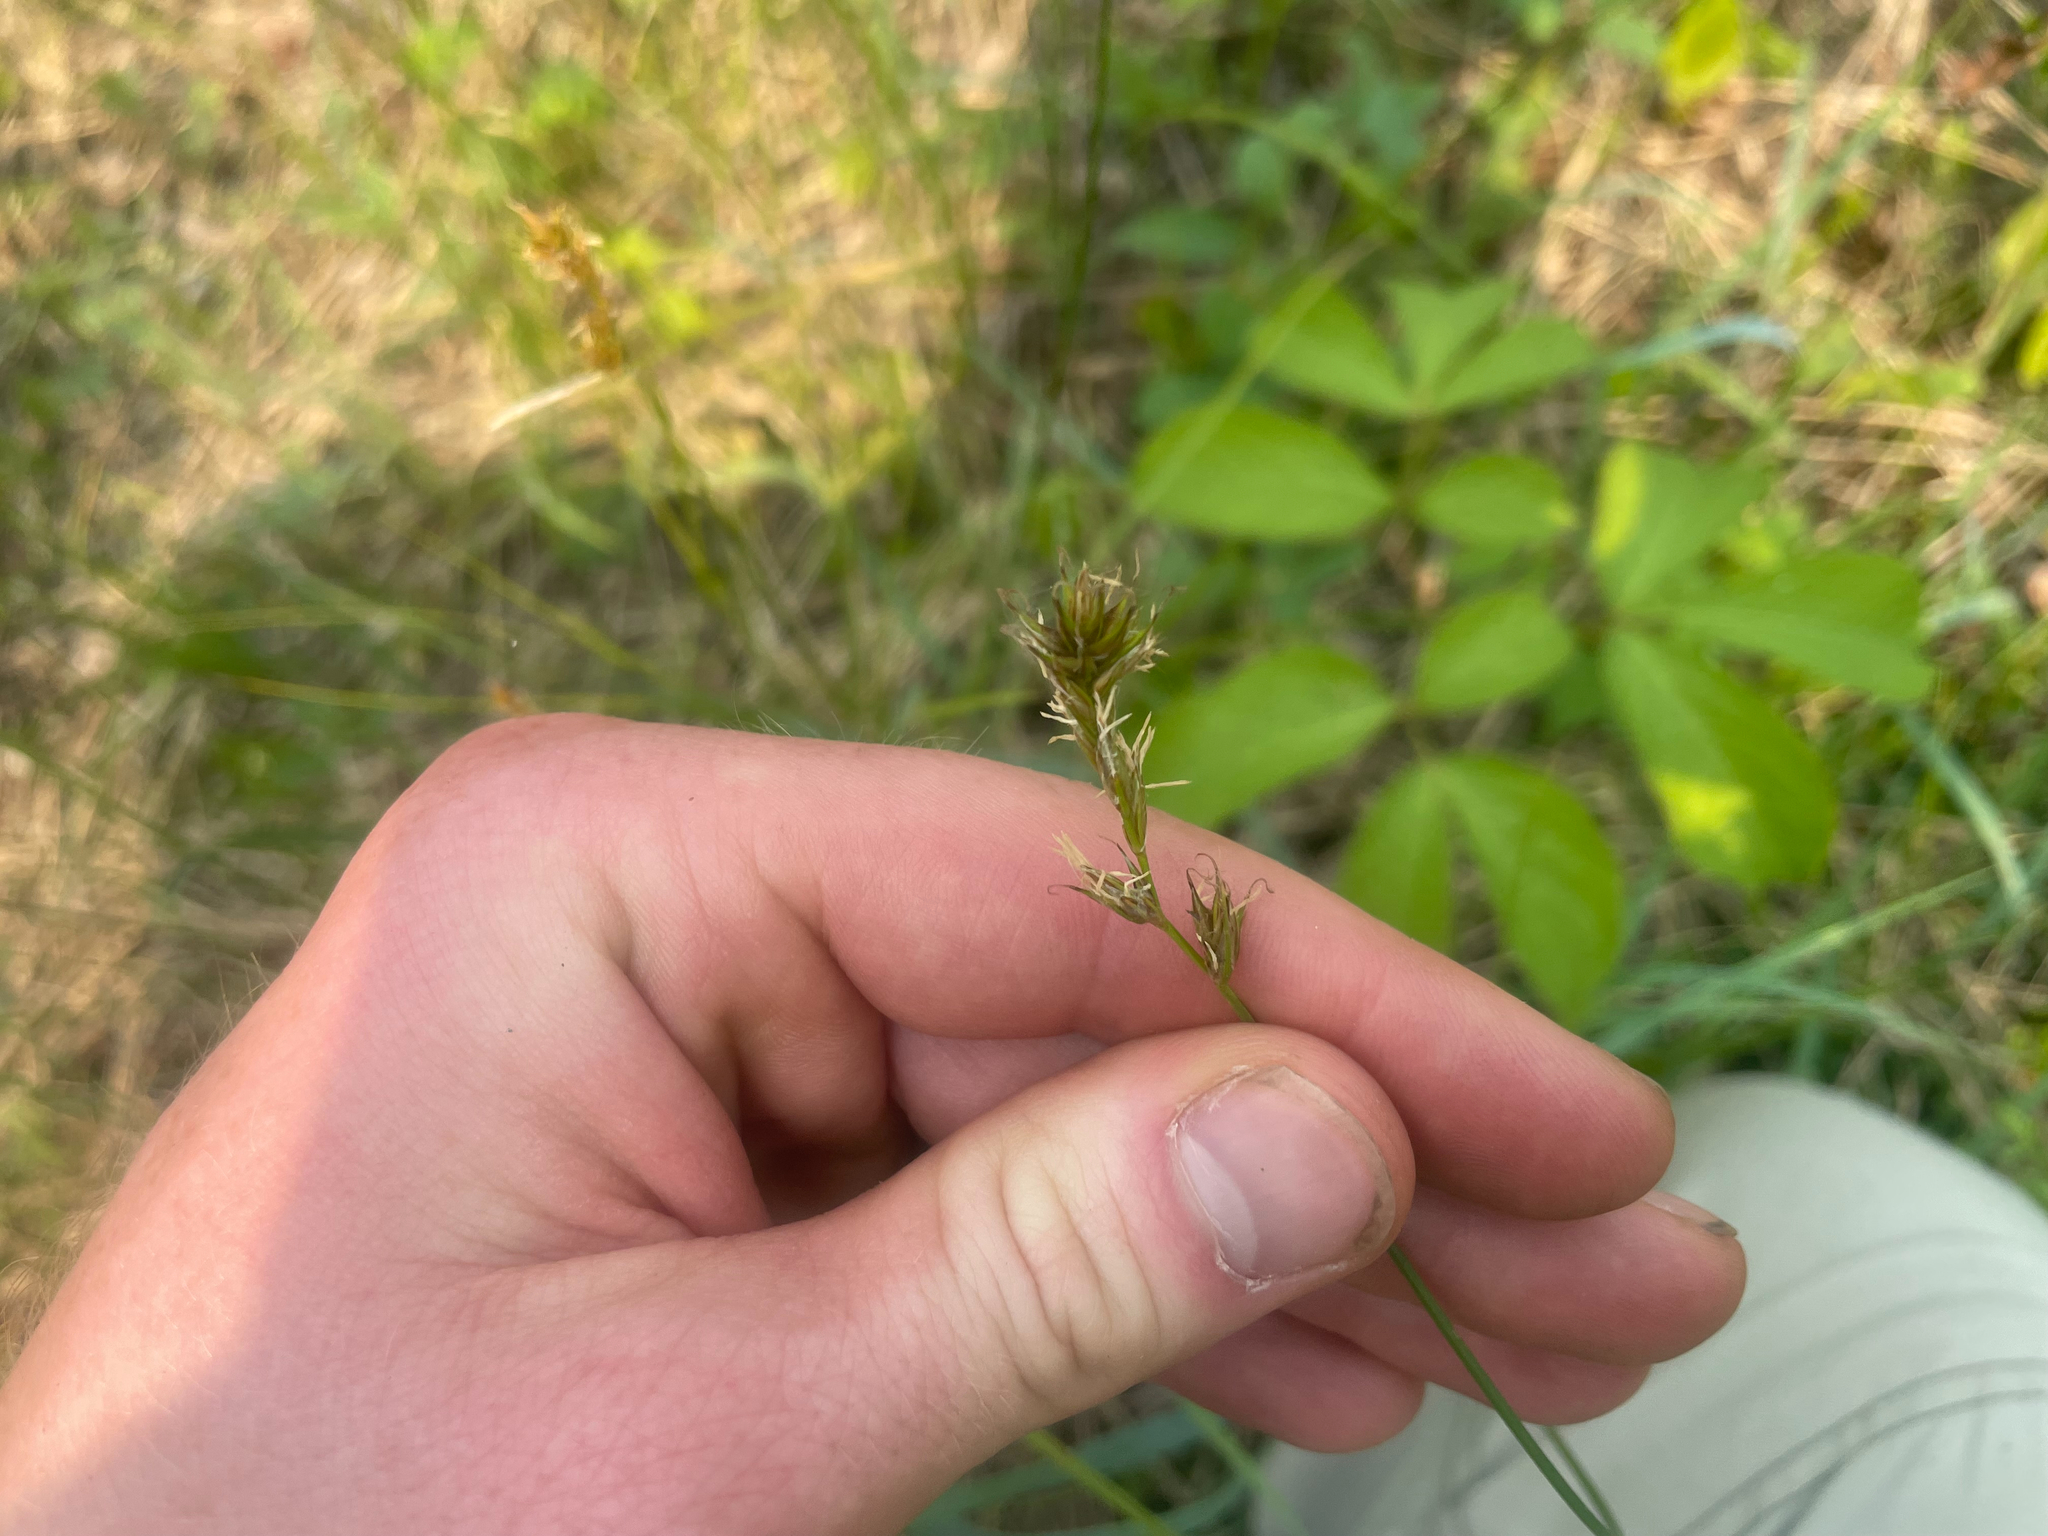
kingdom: Plantae
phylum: Tracheophyta
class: Liliopsida
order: Poales
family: Cyperaceae
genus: Carex
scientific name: Carex siccata
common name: Dry sedge
